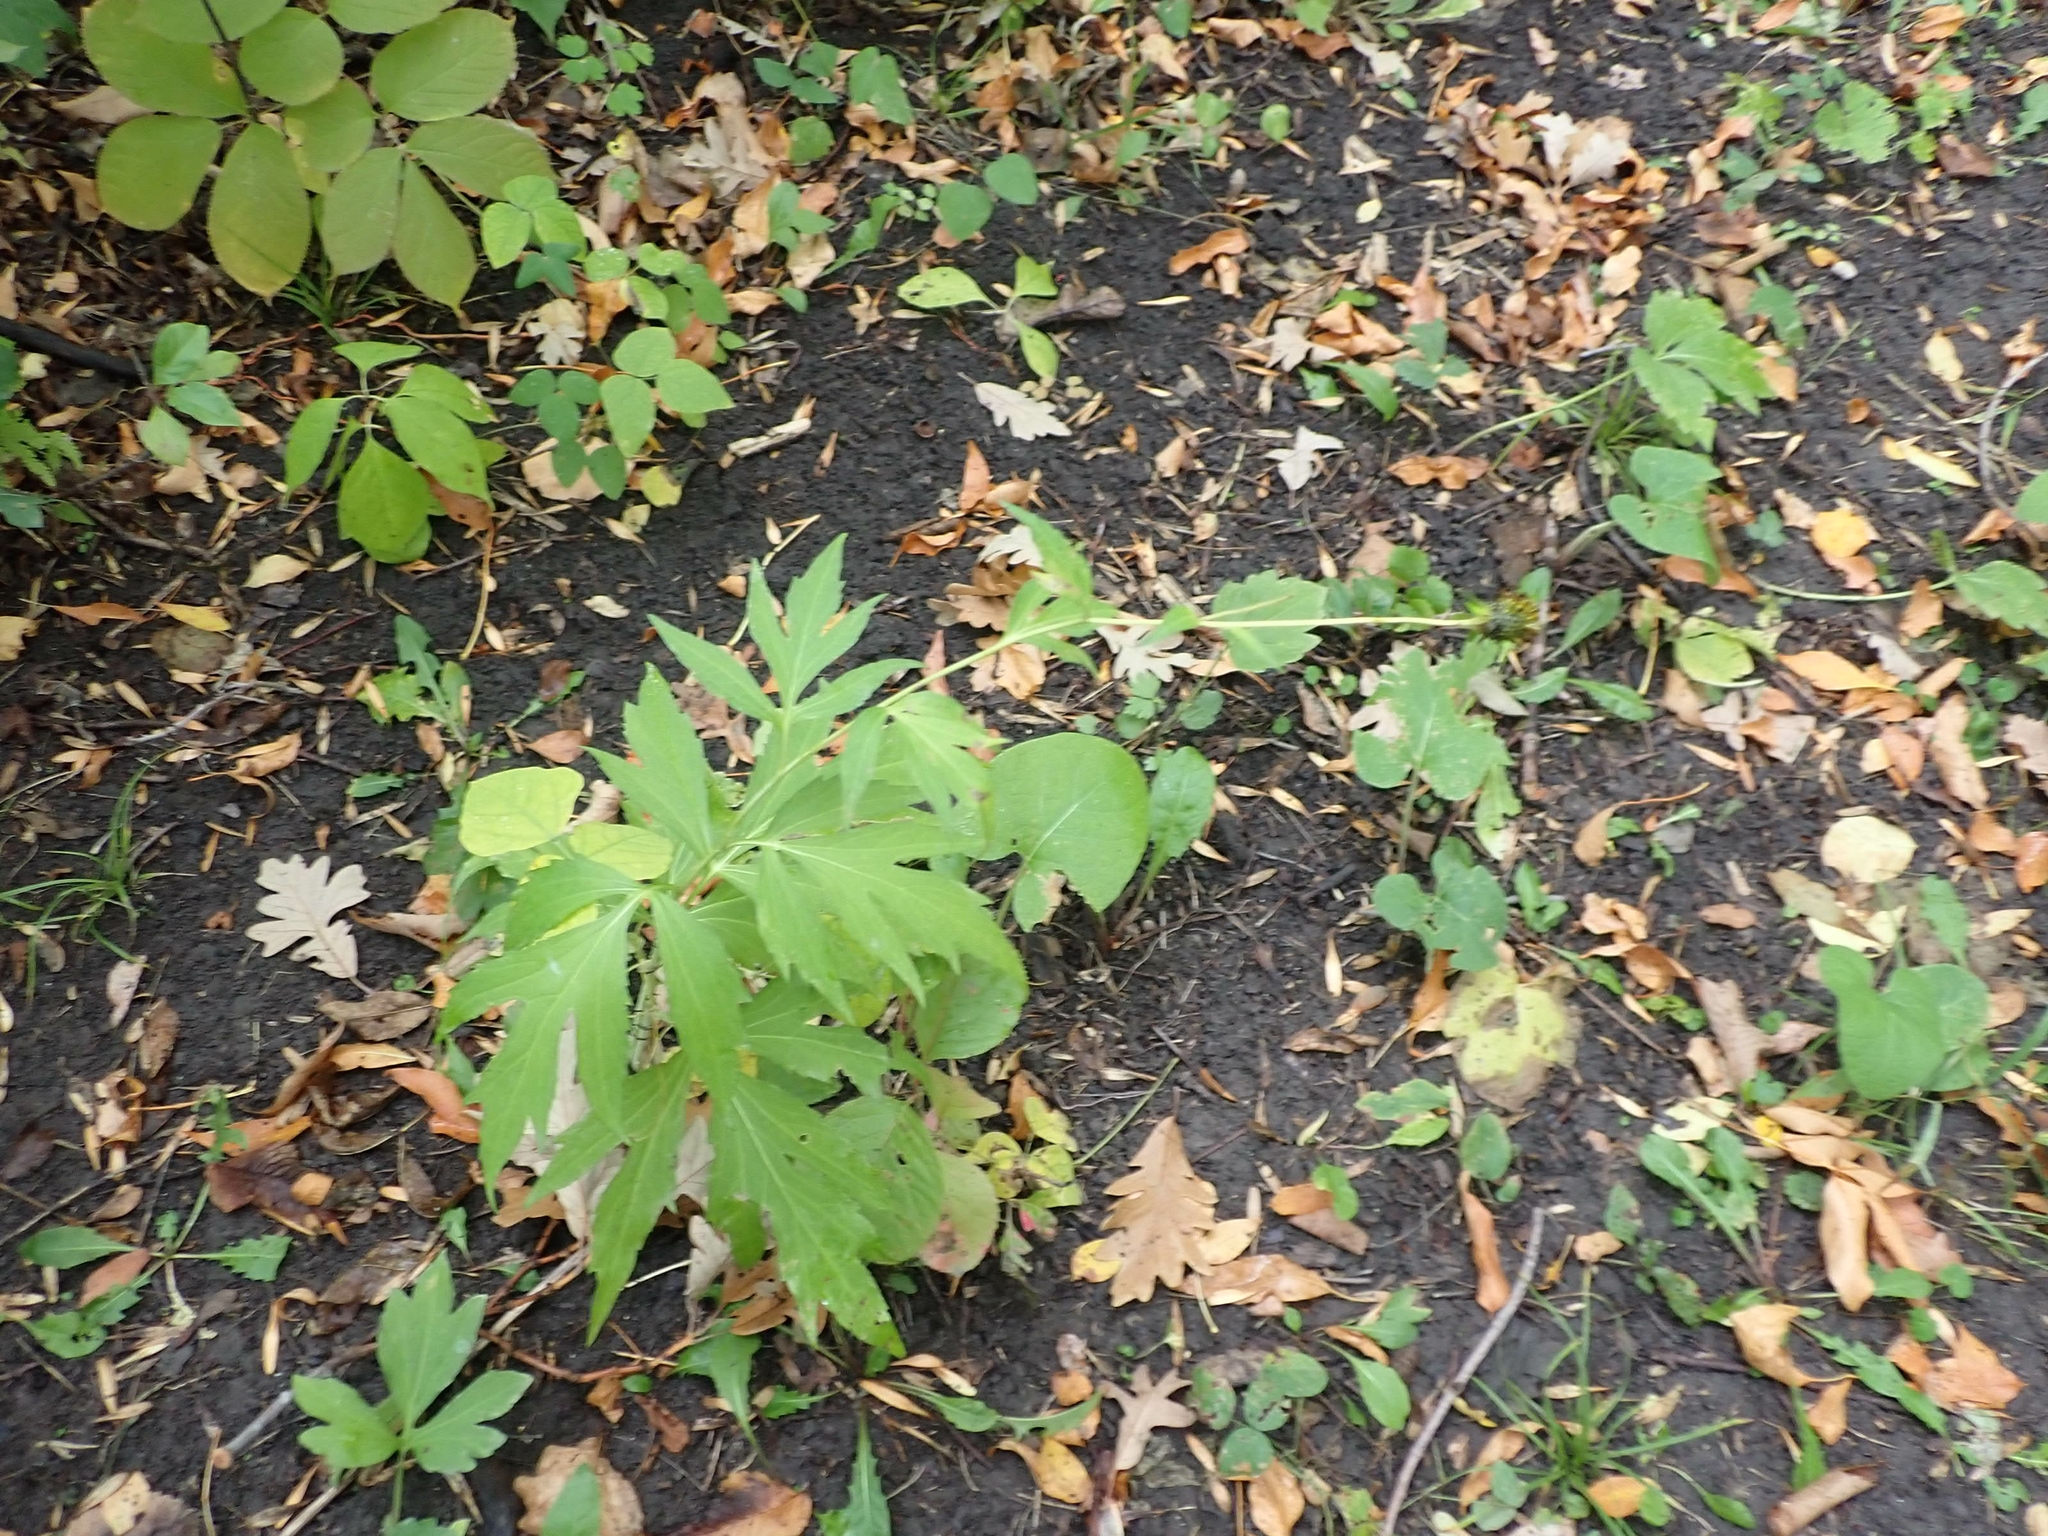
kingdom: Plantae
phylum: Tracheophyta
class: Magnoliopsida
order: Asterales
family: Asteraceae
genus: Rudbeckia
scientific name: Rudbeckia laciniata
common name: Coneflower
